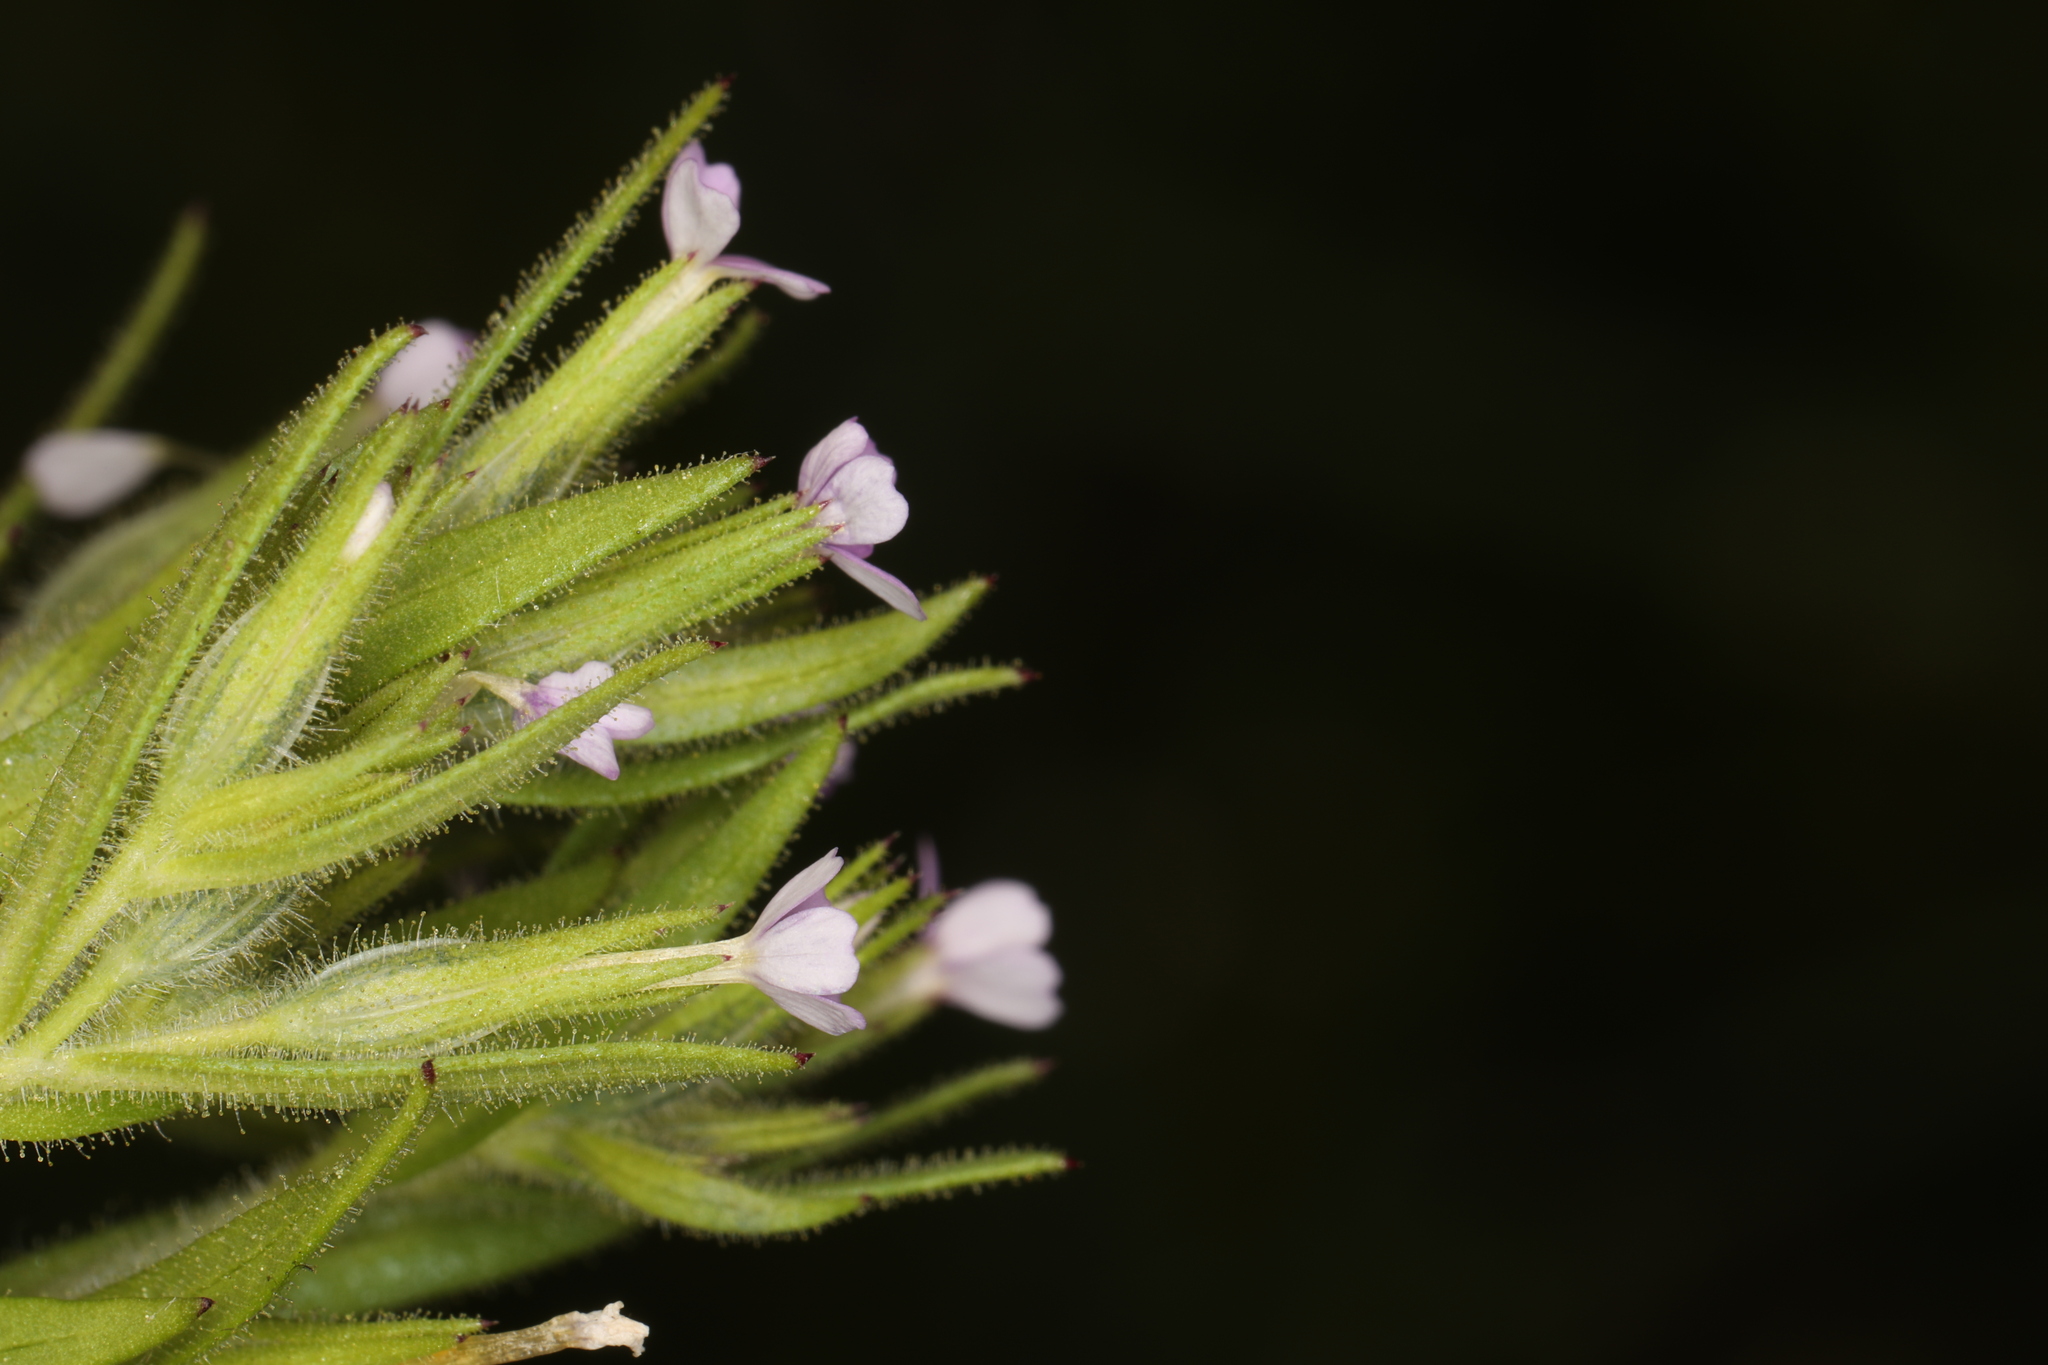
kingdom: Plantae
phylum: Tracheophyta
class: Magnoliopsida
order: Ericales
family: Polemoniaceae
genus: Phlox
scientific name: Phlox gracilis
